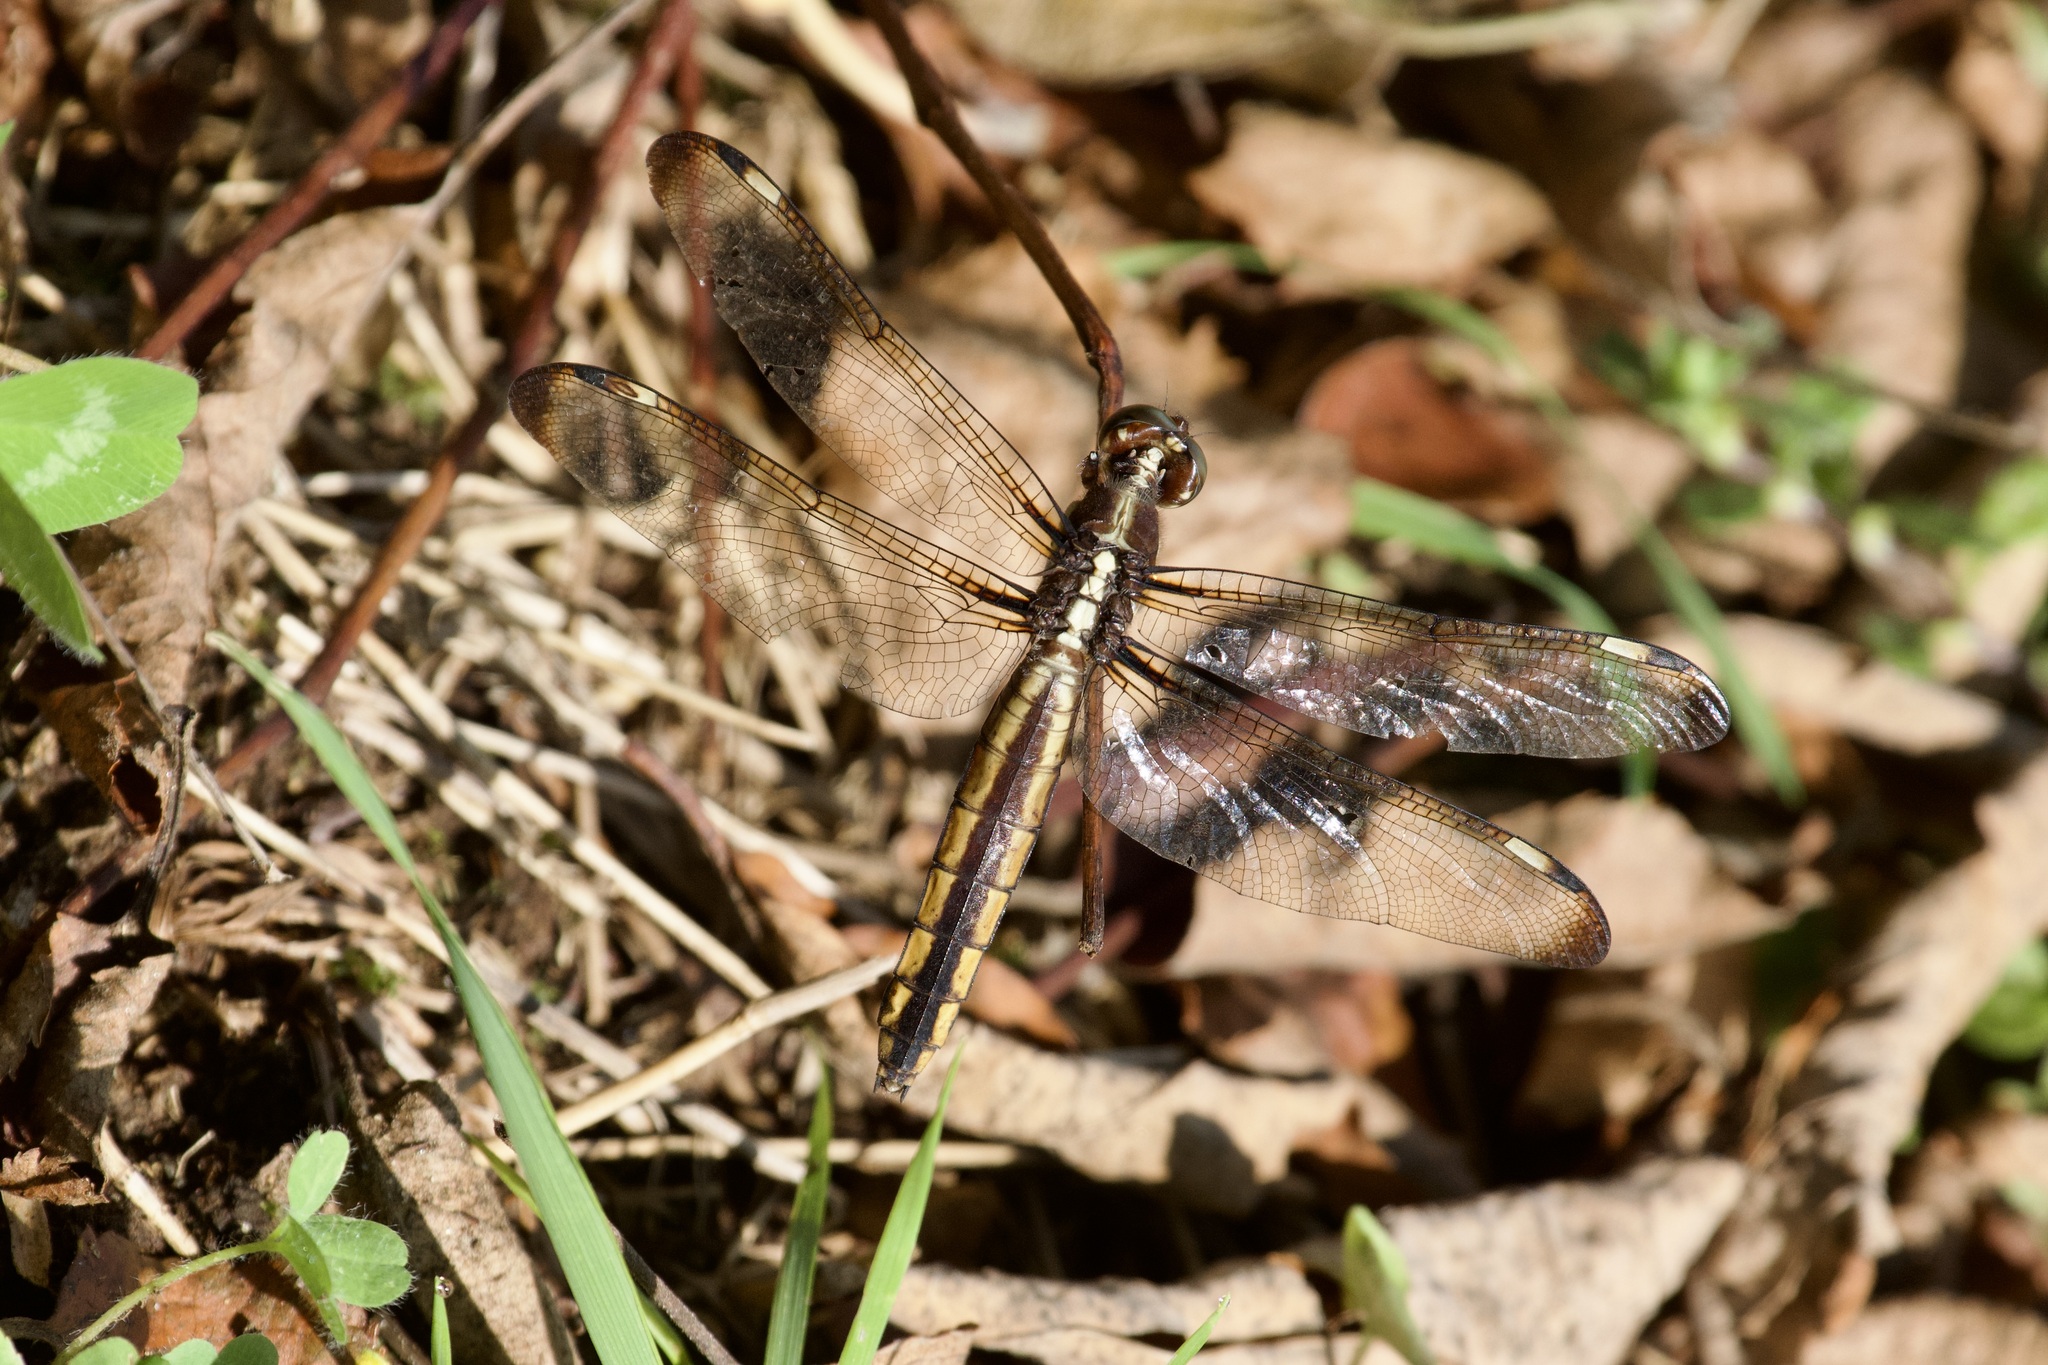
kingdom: Animalia
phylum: Arthropoda
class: Insecta
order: Odonata
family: Libellulidae
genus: Libellula
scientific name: Libellula cyanea
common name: Spangled skimmer
